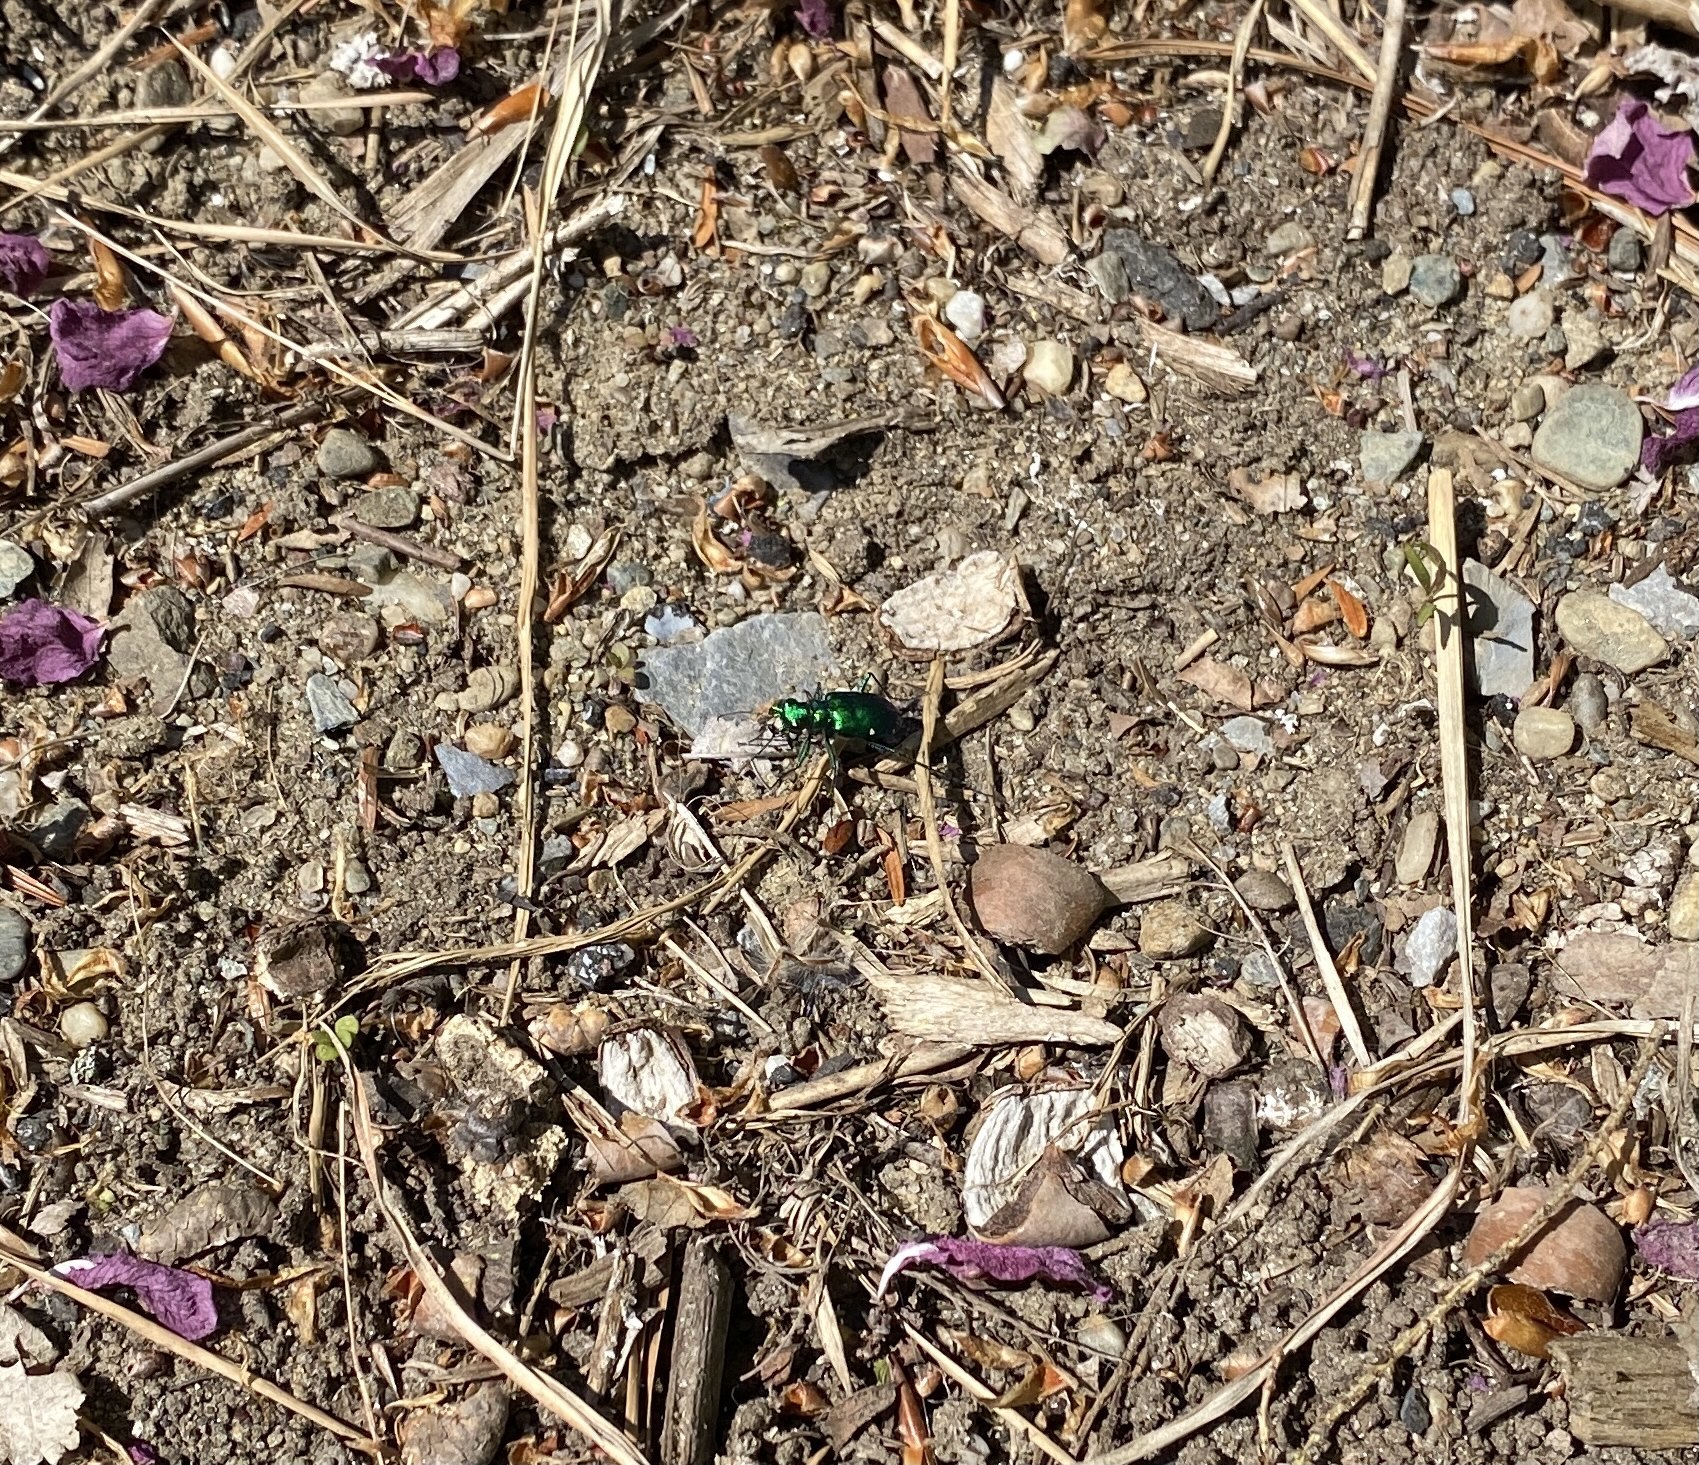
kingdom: Animalia
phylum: Arthropoda
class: Insecta
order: Coleoptera
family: Carabidae
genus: Cicindela
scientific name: Cicindela sexguttata
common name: Six-spotted tiger beetle
